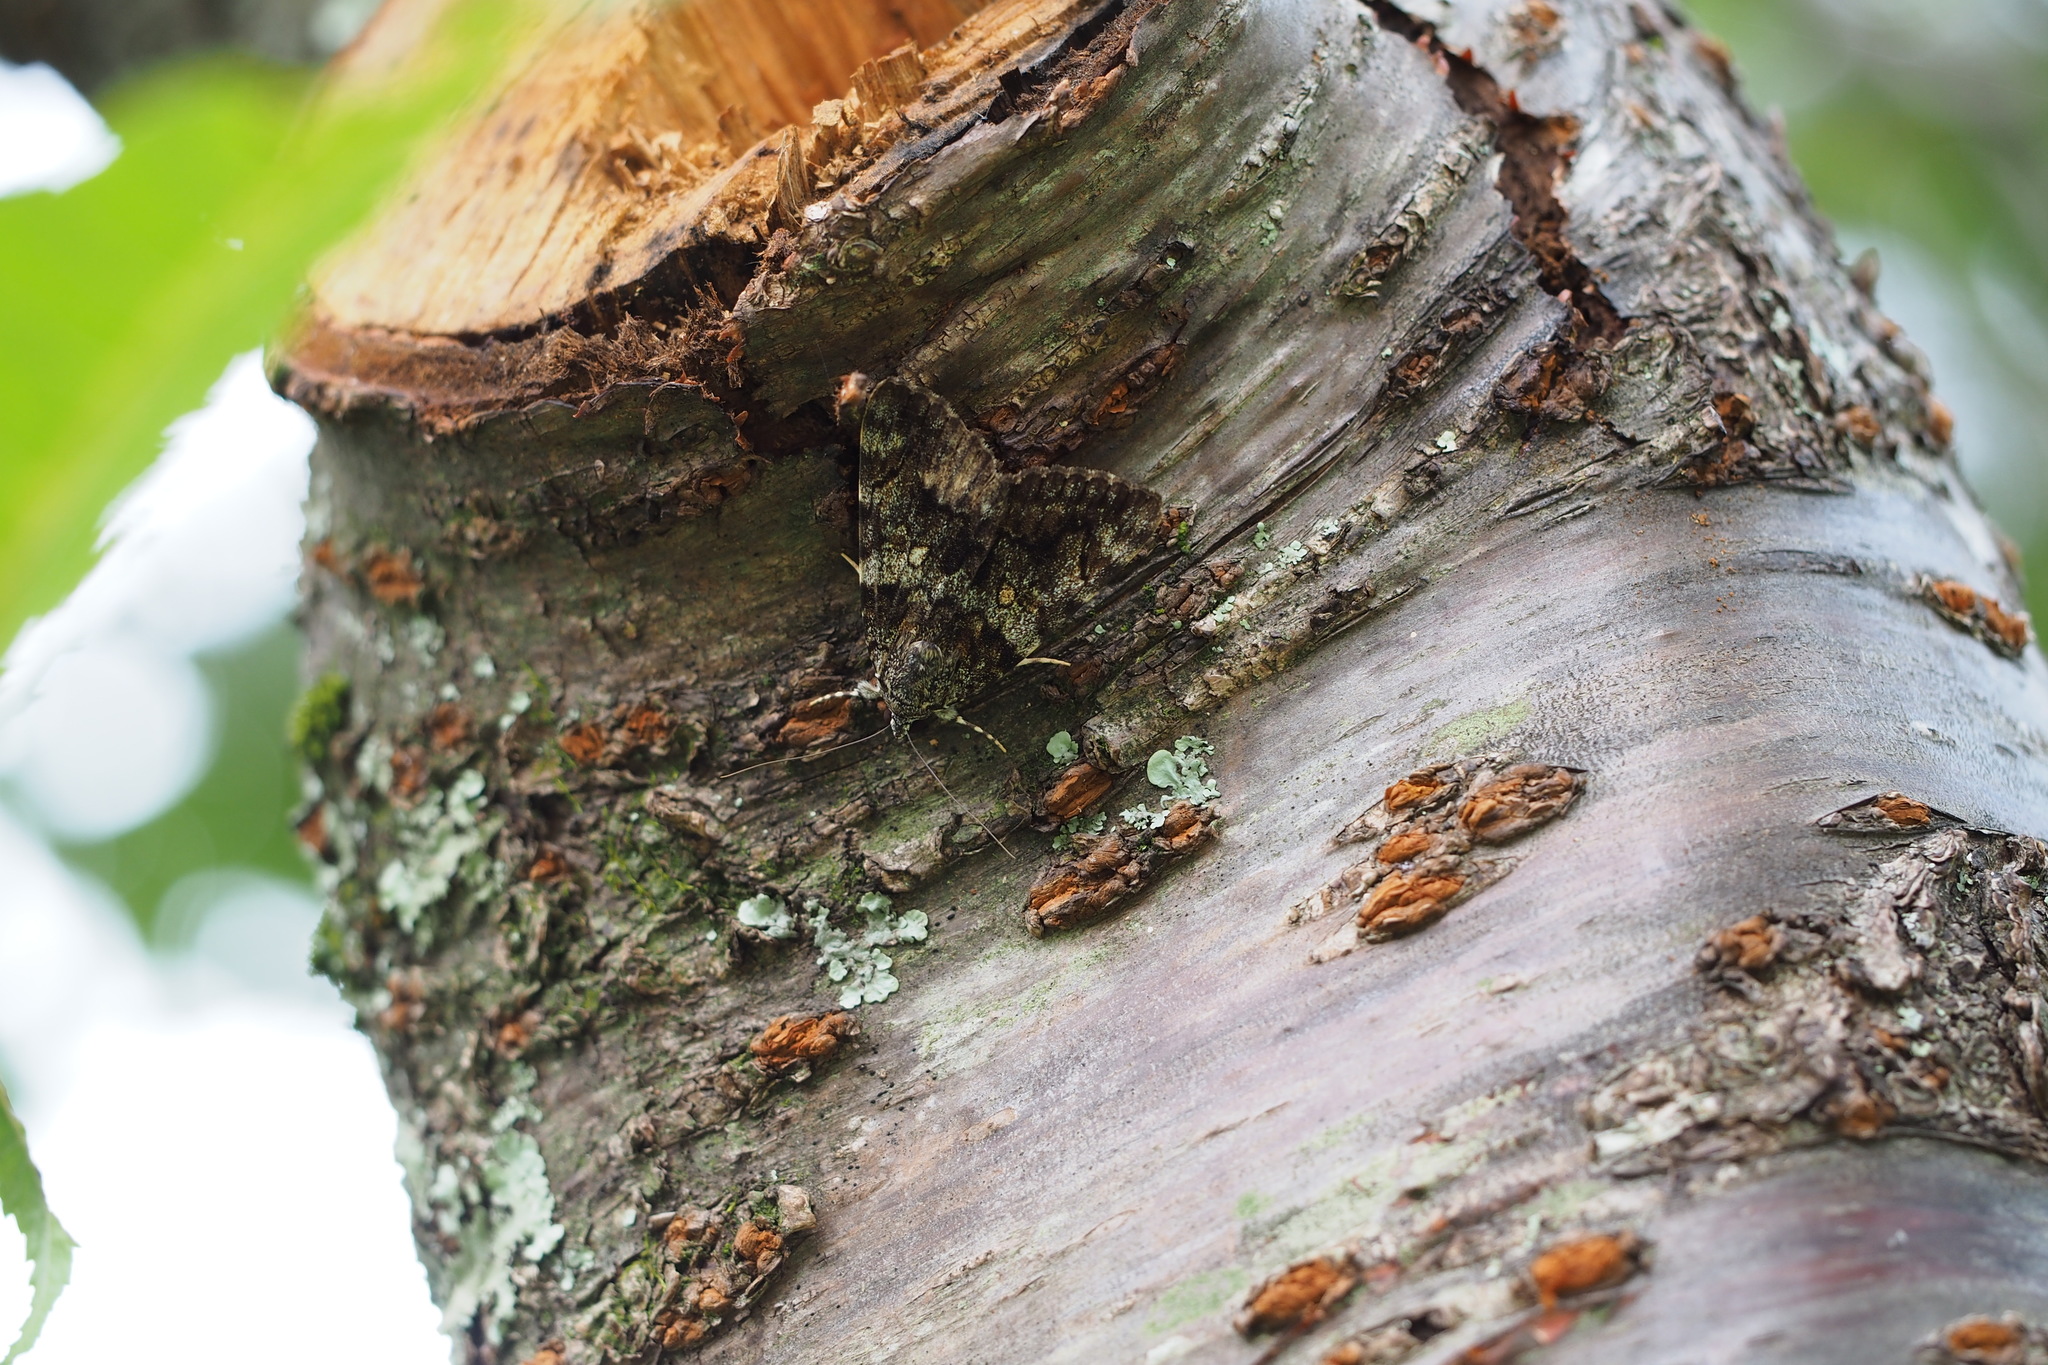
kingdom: Animalia
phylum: Arthropoda
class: Insecta
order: Lepidoptera
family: Erebidae
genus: Catocala
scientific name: Catocala kuangtungensis
